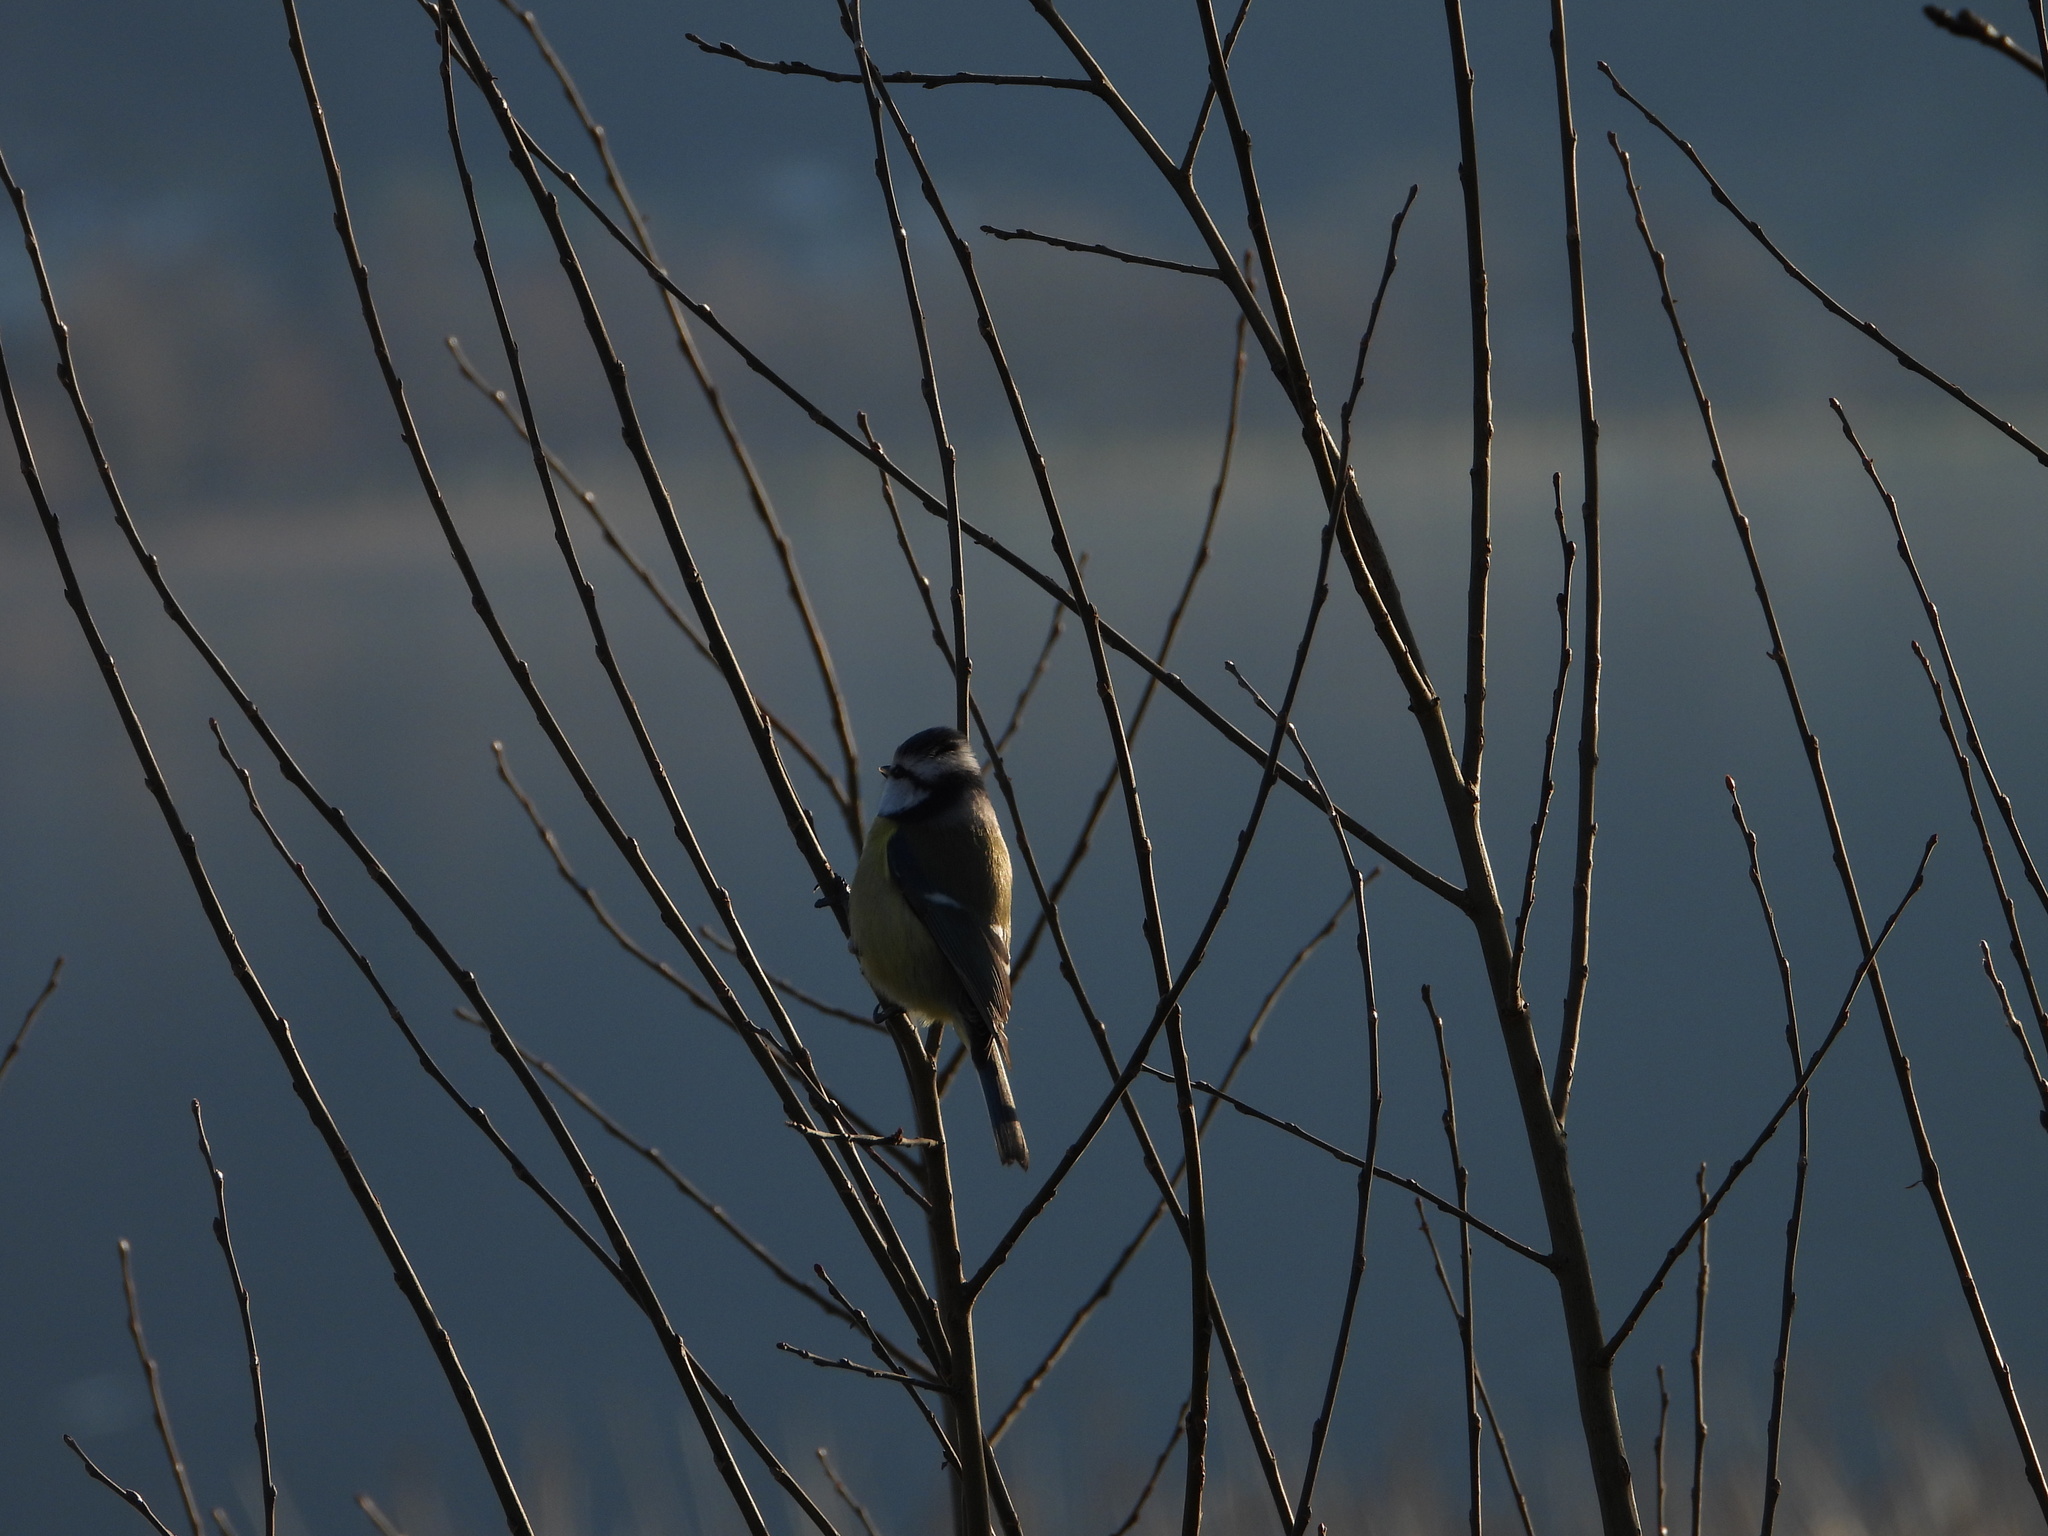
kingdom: Animalia
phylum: Chordata
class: Aves
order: Passeriformes
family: Paridae
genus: Cyanistes
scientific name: Cyanistes caeruleus
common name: Eurasian blue tit
